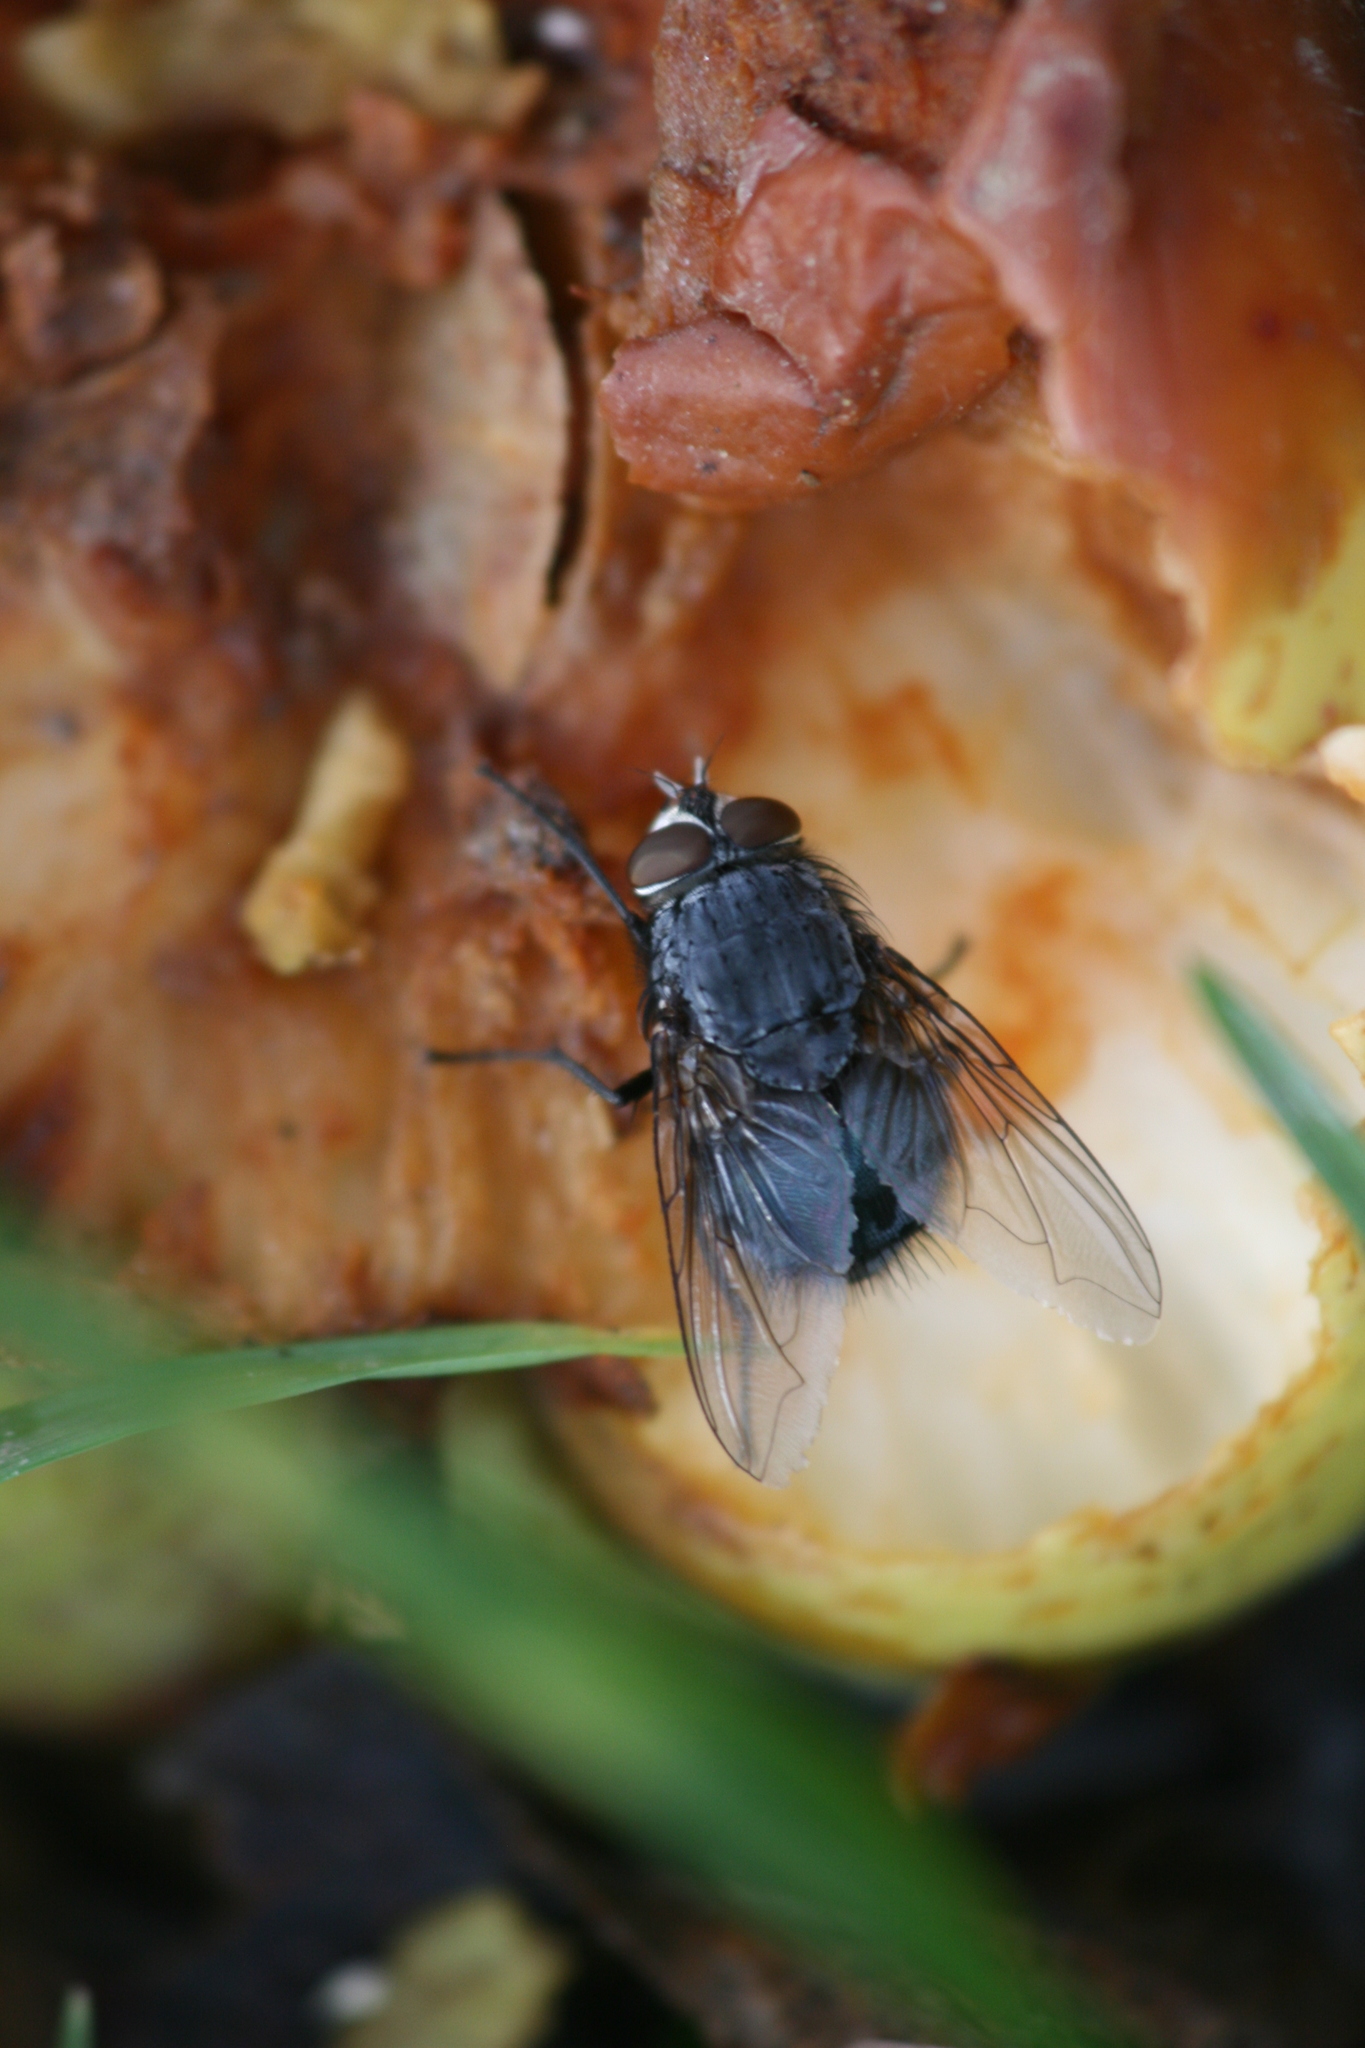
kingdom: Animalia
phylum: Arthropoda
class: Insecta
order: Diptera
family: Calliphoridae
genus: Calliphora
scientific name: Calliphora vicina
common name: Common blow flie
